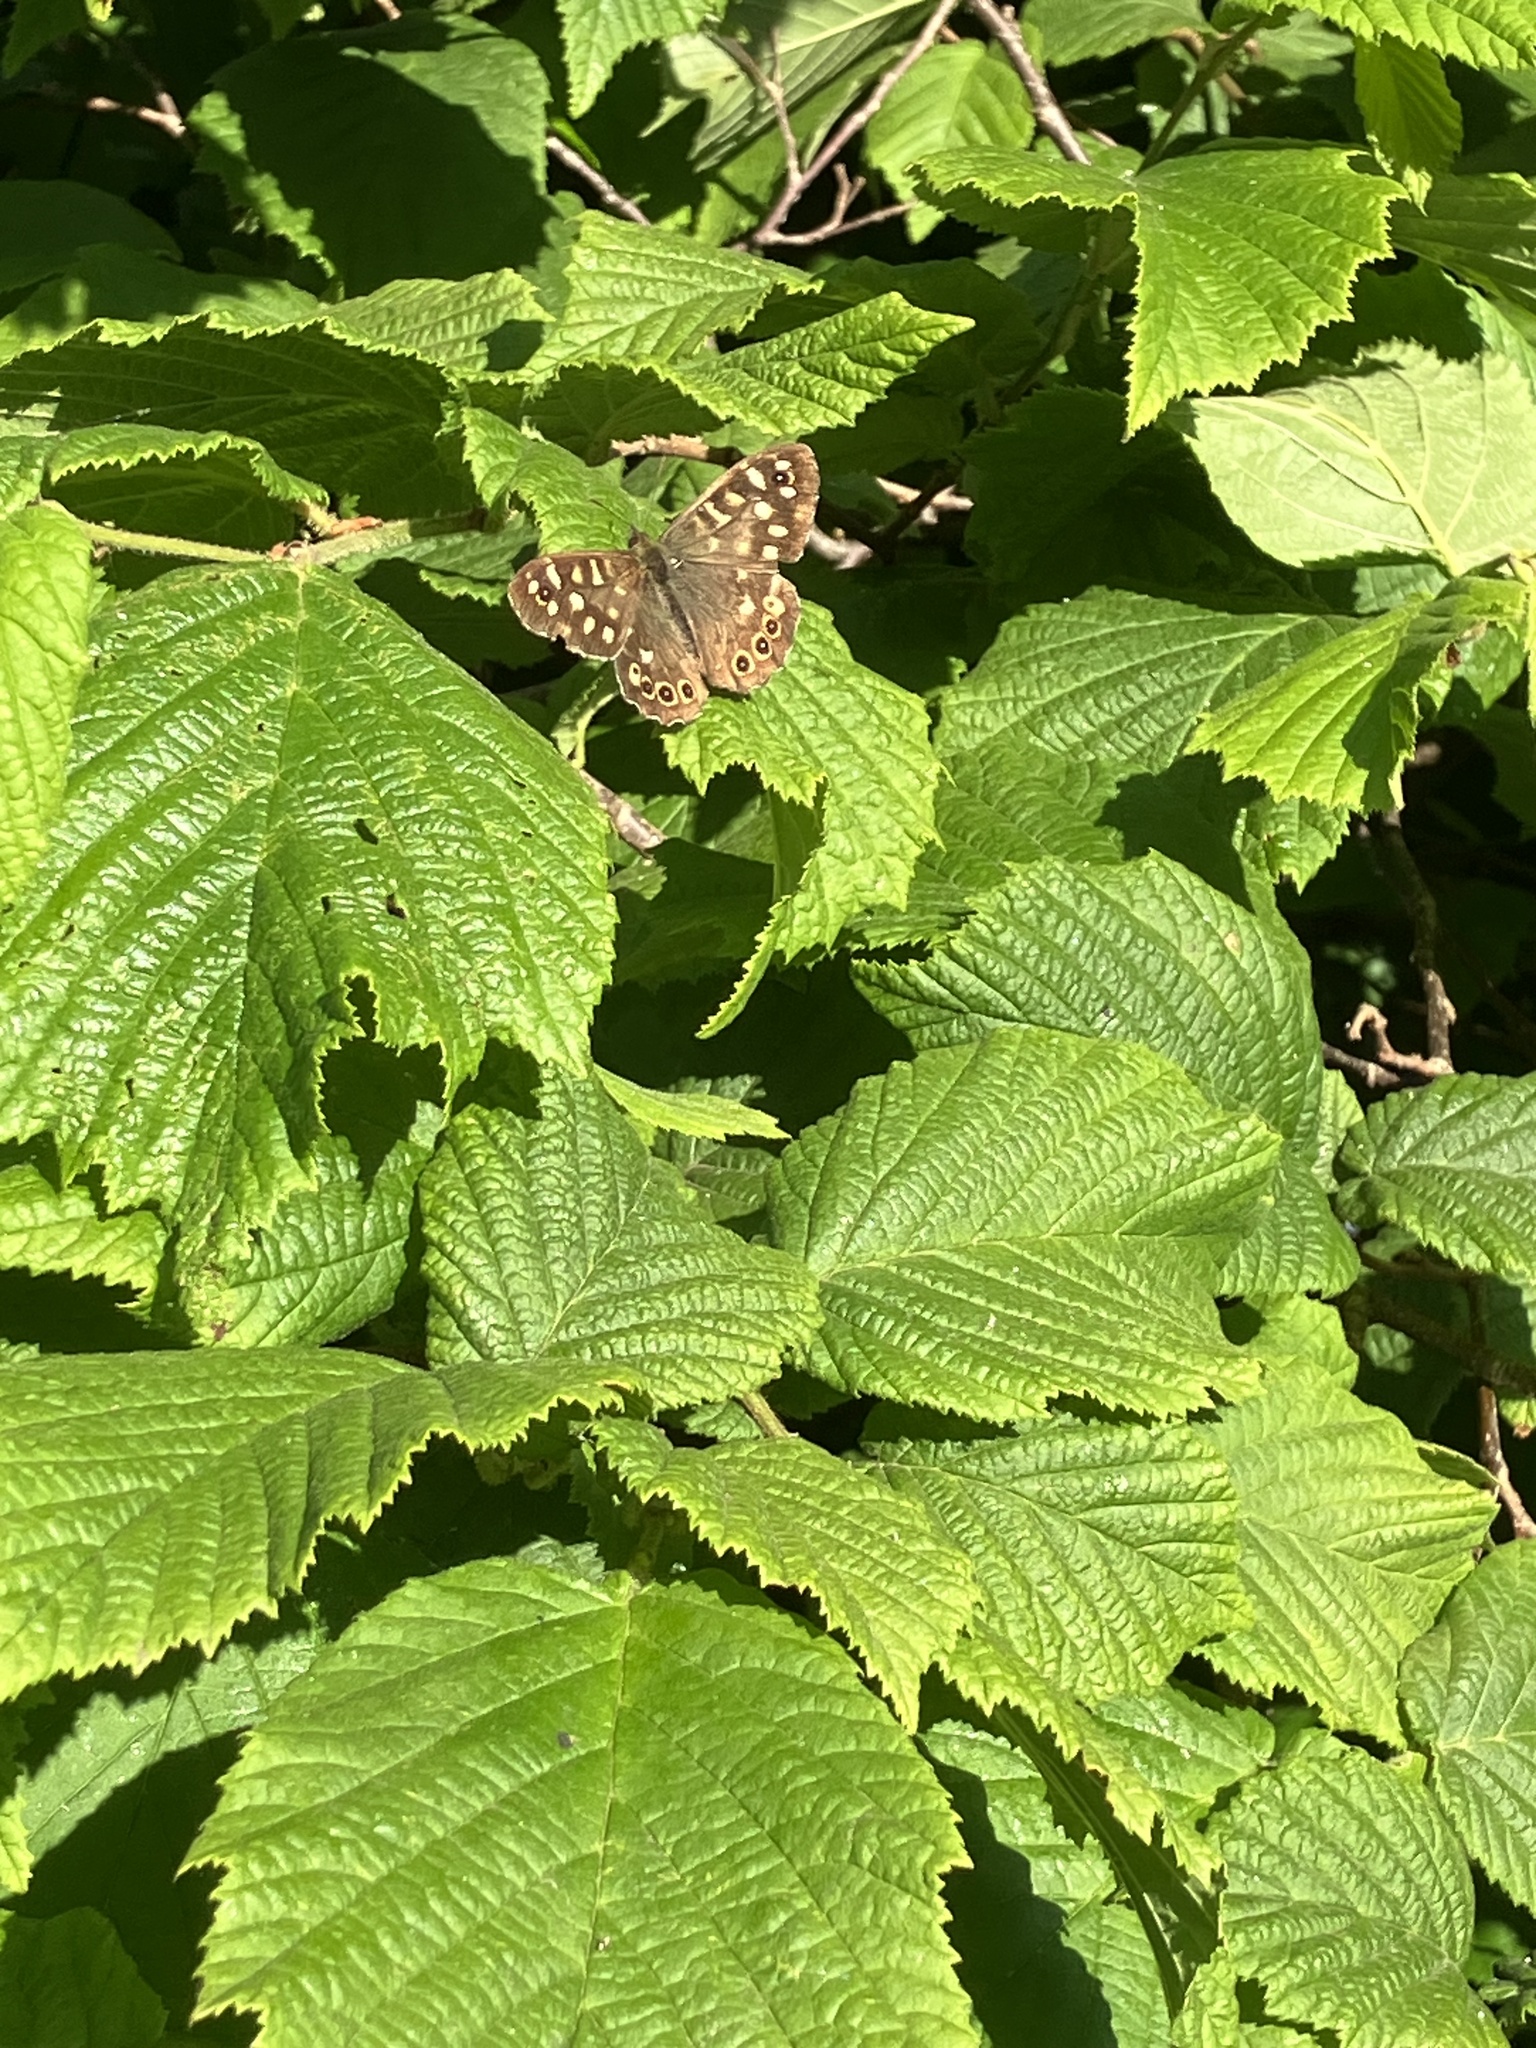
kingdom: Animalia
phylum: Arthropoda
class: Insecta
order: Lepidoptera
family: Nymphalidae
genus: Pararge
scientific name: Pararge aegeria
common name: Speckled wood
